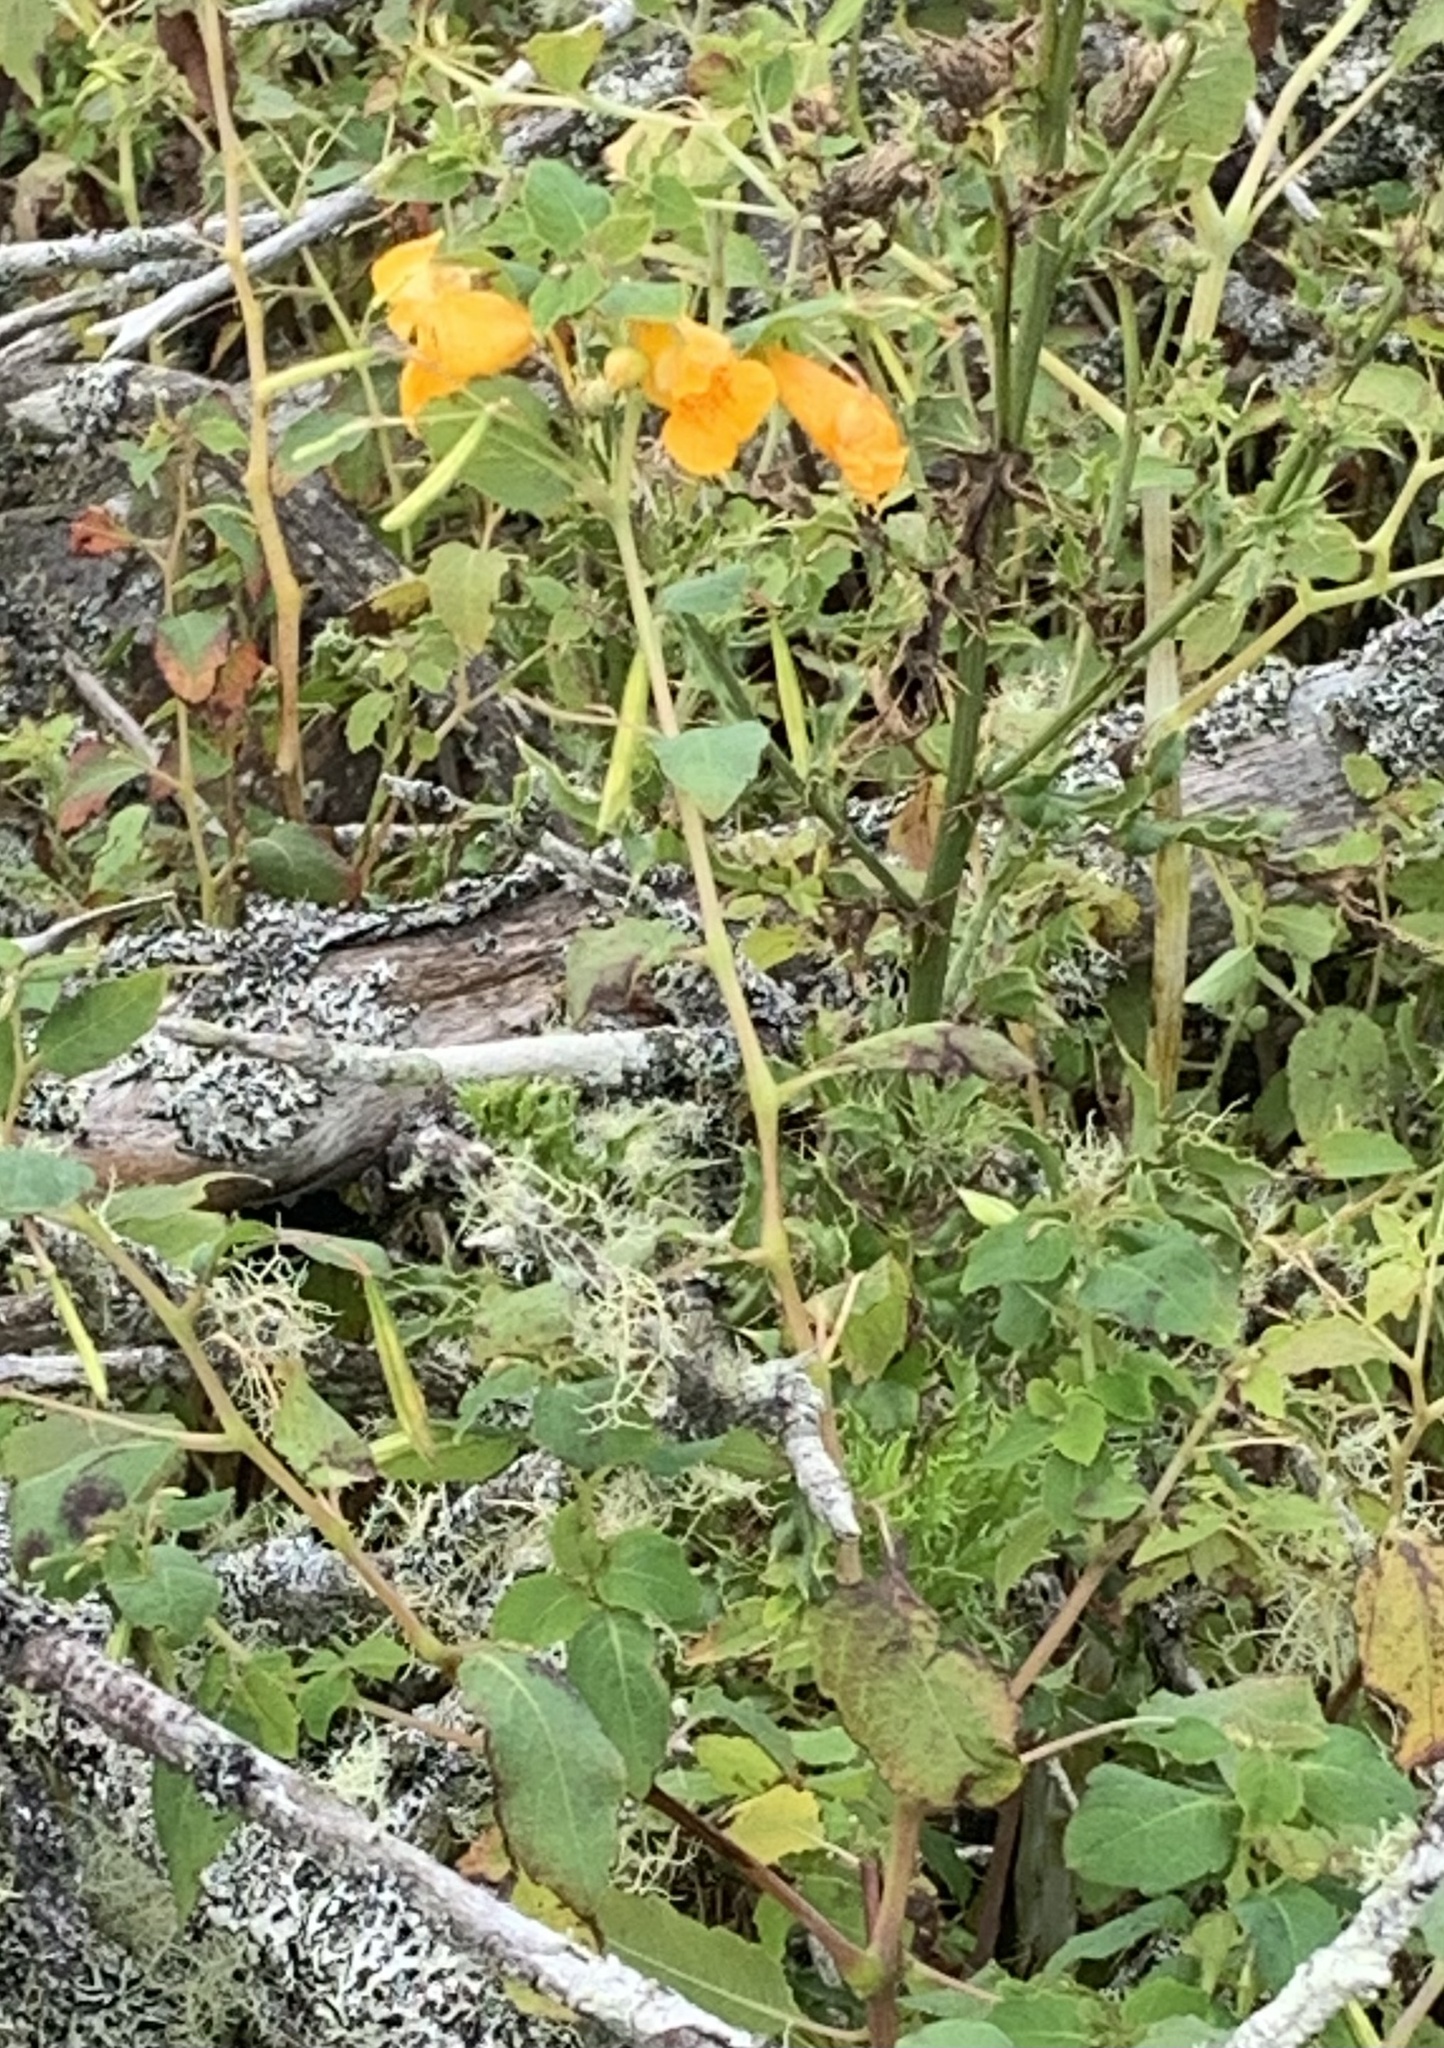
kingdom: Plantae
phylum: Tracheophyta
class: Magnoliopsida
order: Ericales
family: Balsaminaceae
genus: Impatiens
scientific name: Impatiens capensis
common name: Orange balsam
